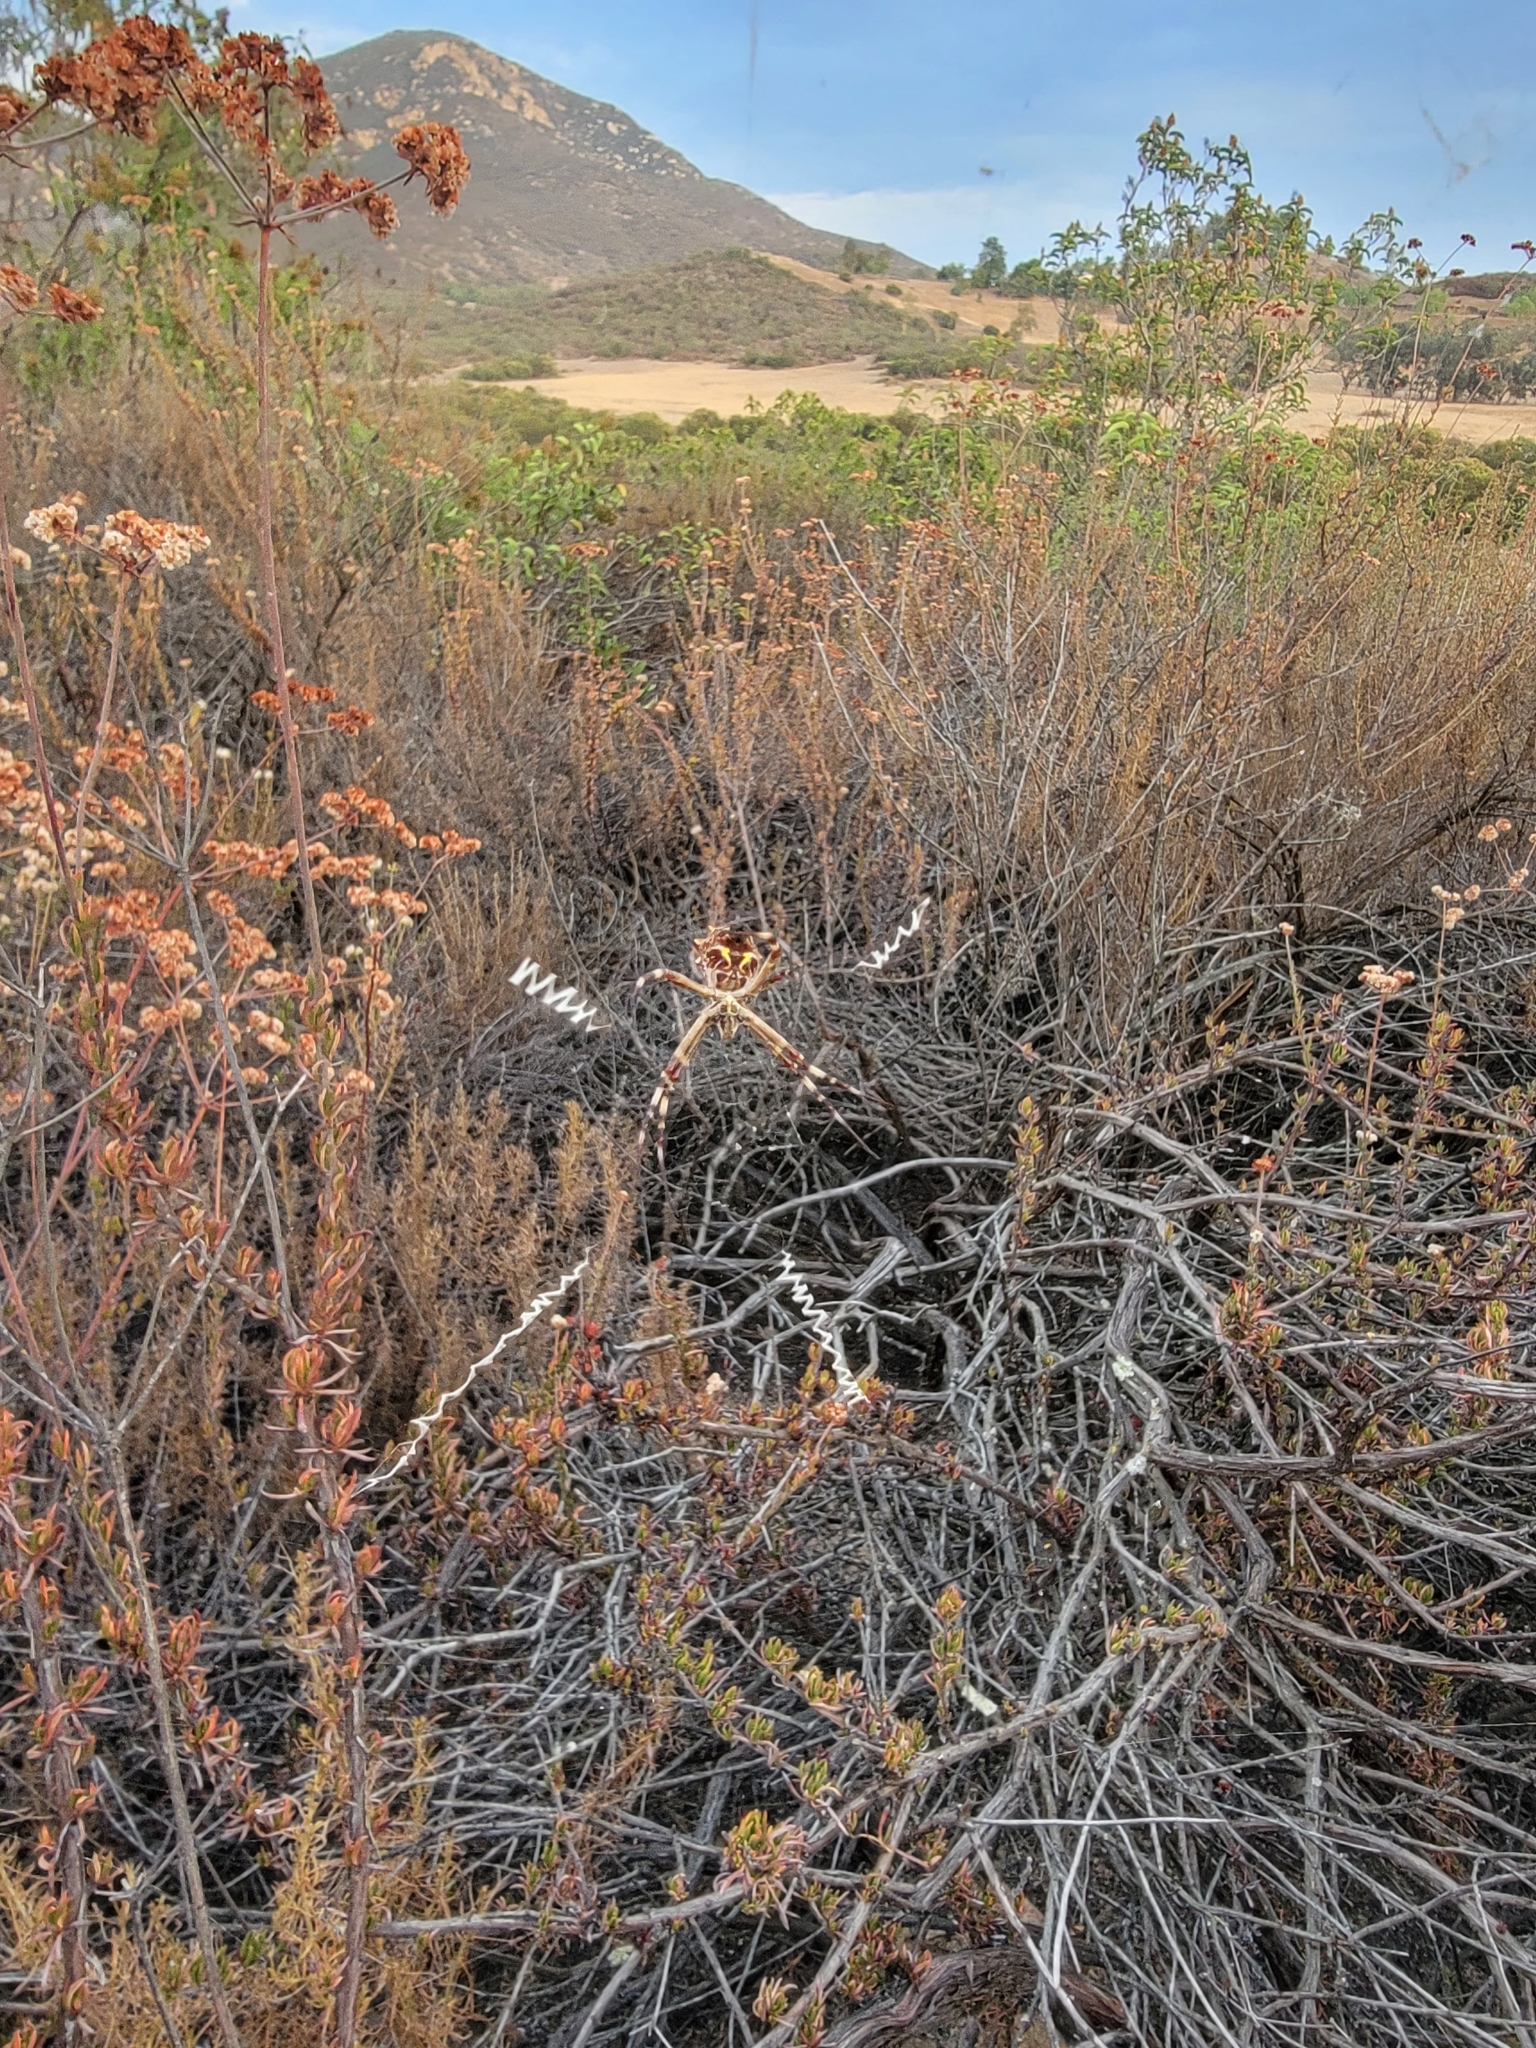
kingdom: Animalia
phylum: Arthropoda
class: Arachnida
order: Araneae
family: Araneidae
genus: Argiope
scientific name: Argiope argentata
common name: Orb weavers
